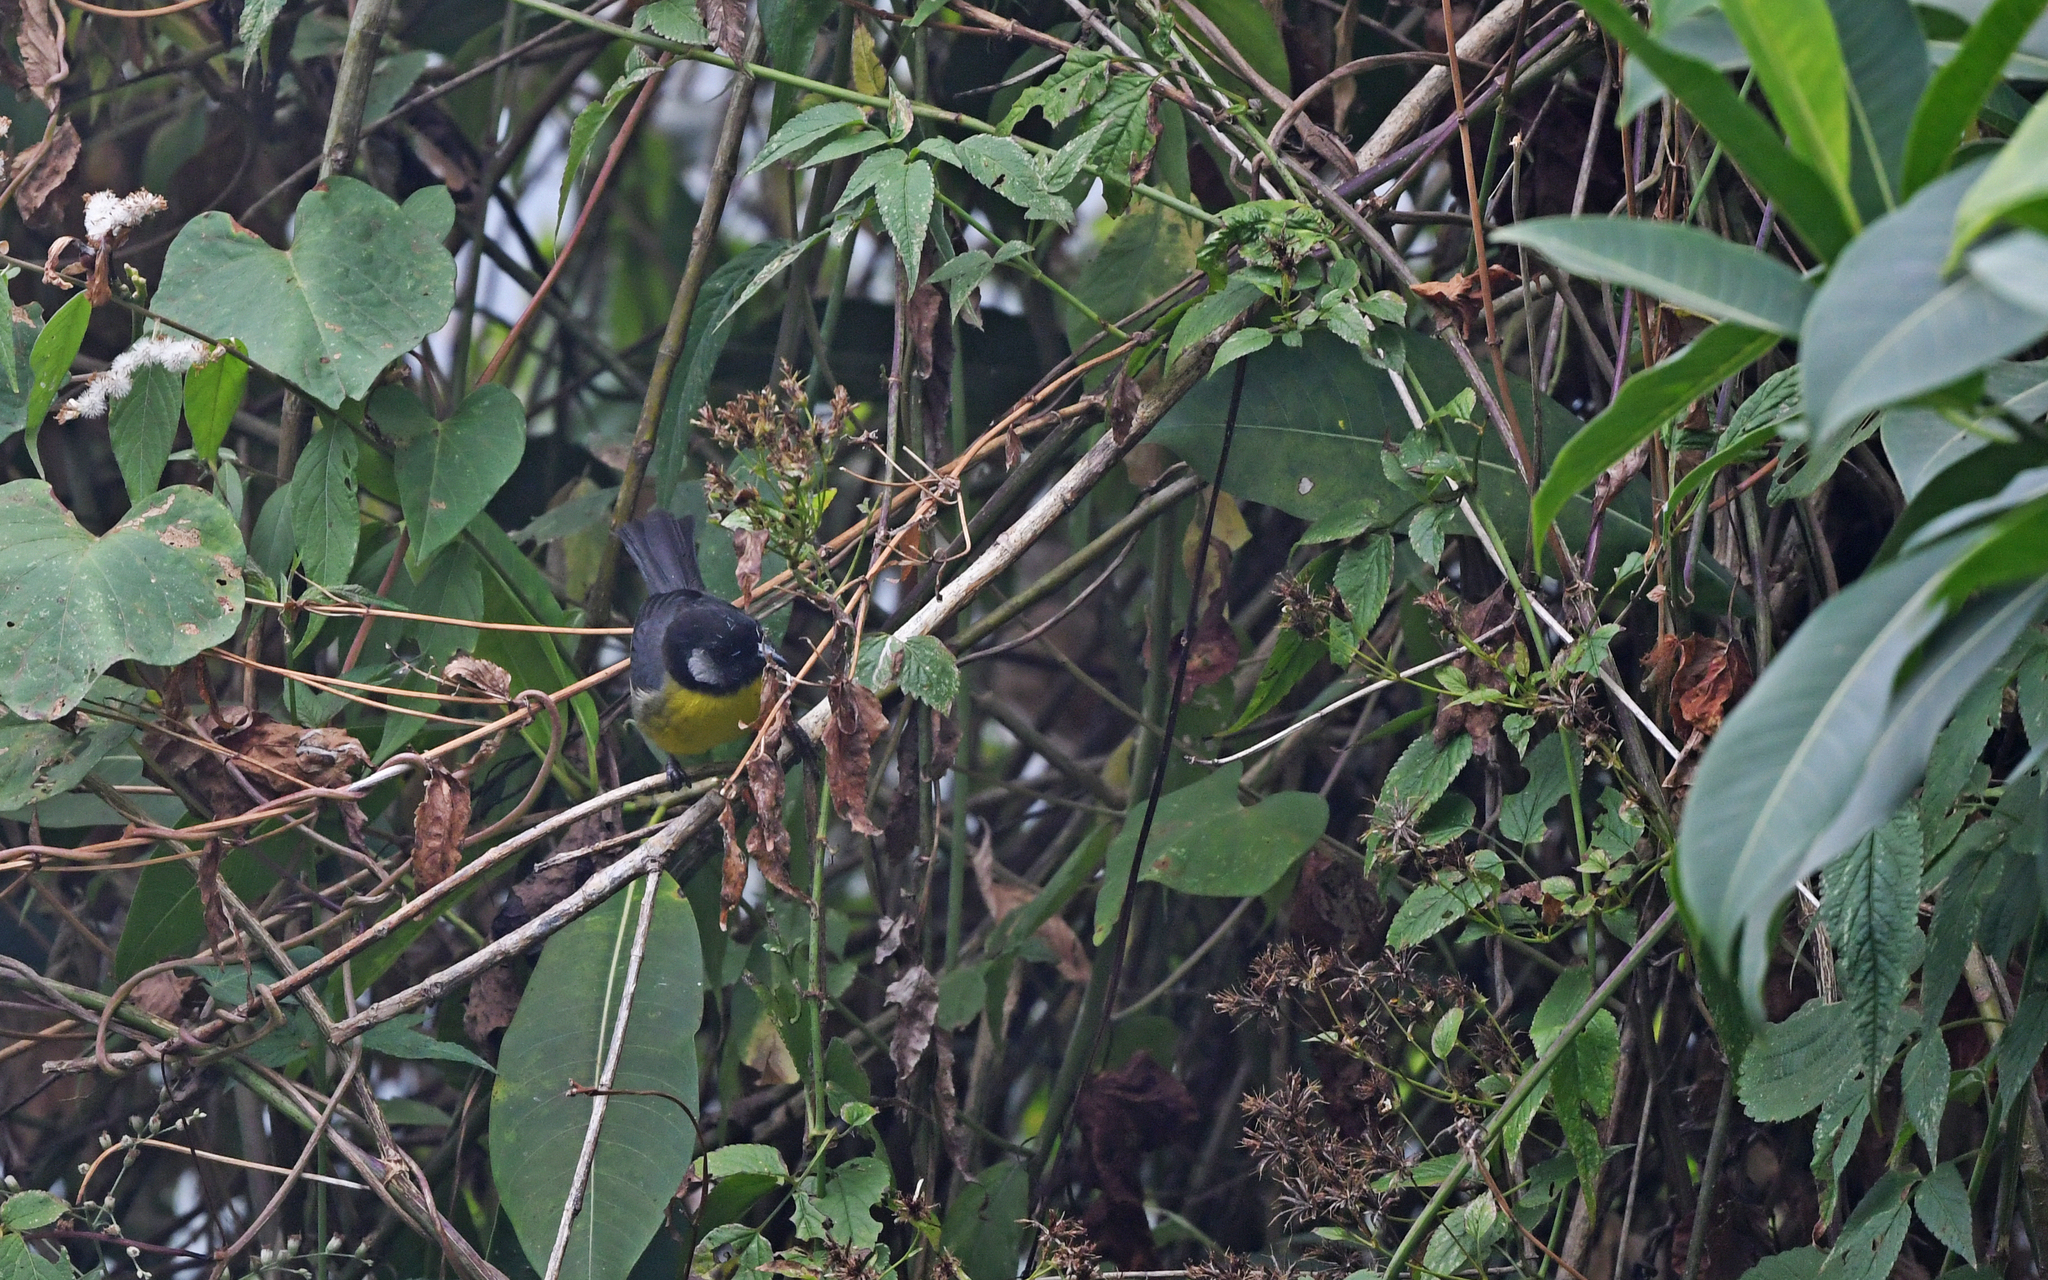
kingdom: Animalia
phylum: Chordata
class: Aves
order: Passeriformes
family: Passerellidae
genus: Atlapetes
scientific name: Atlapetes melanocephalus
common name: Santa marta brush-finch
